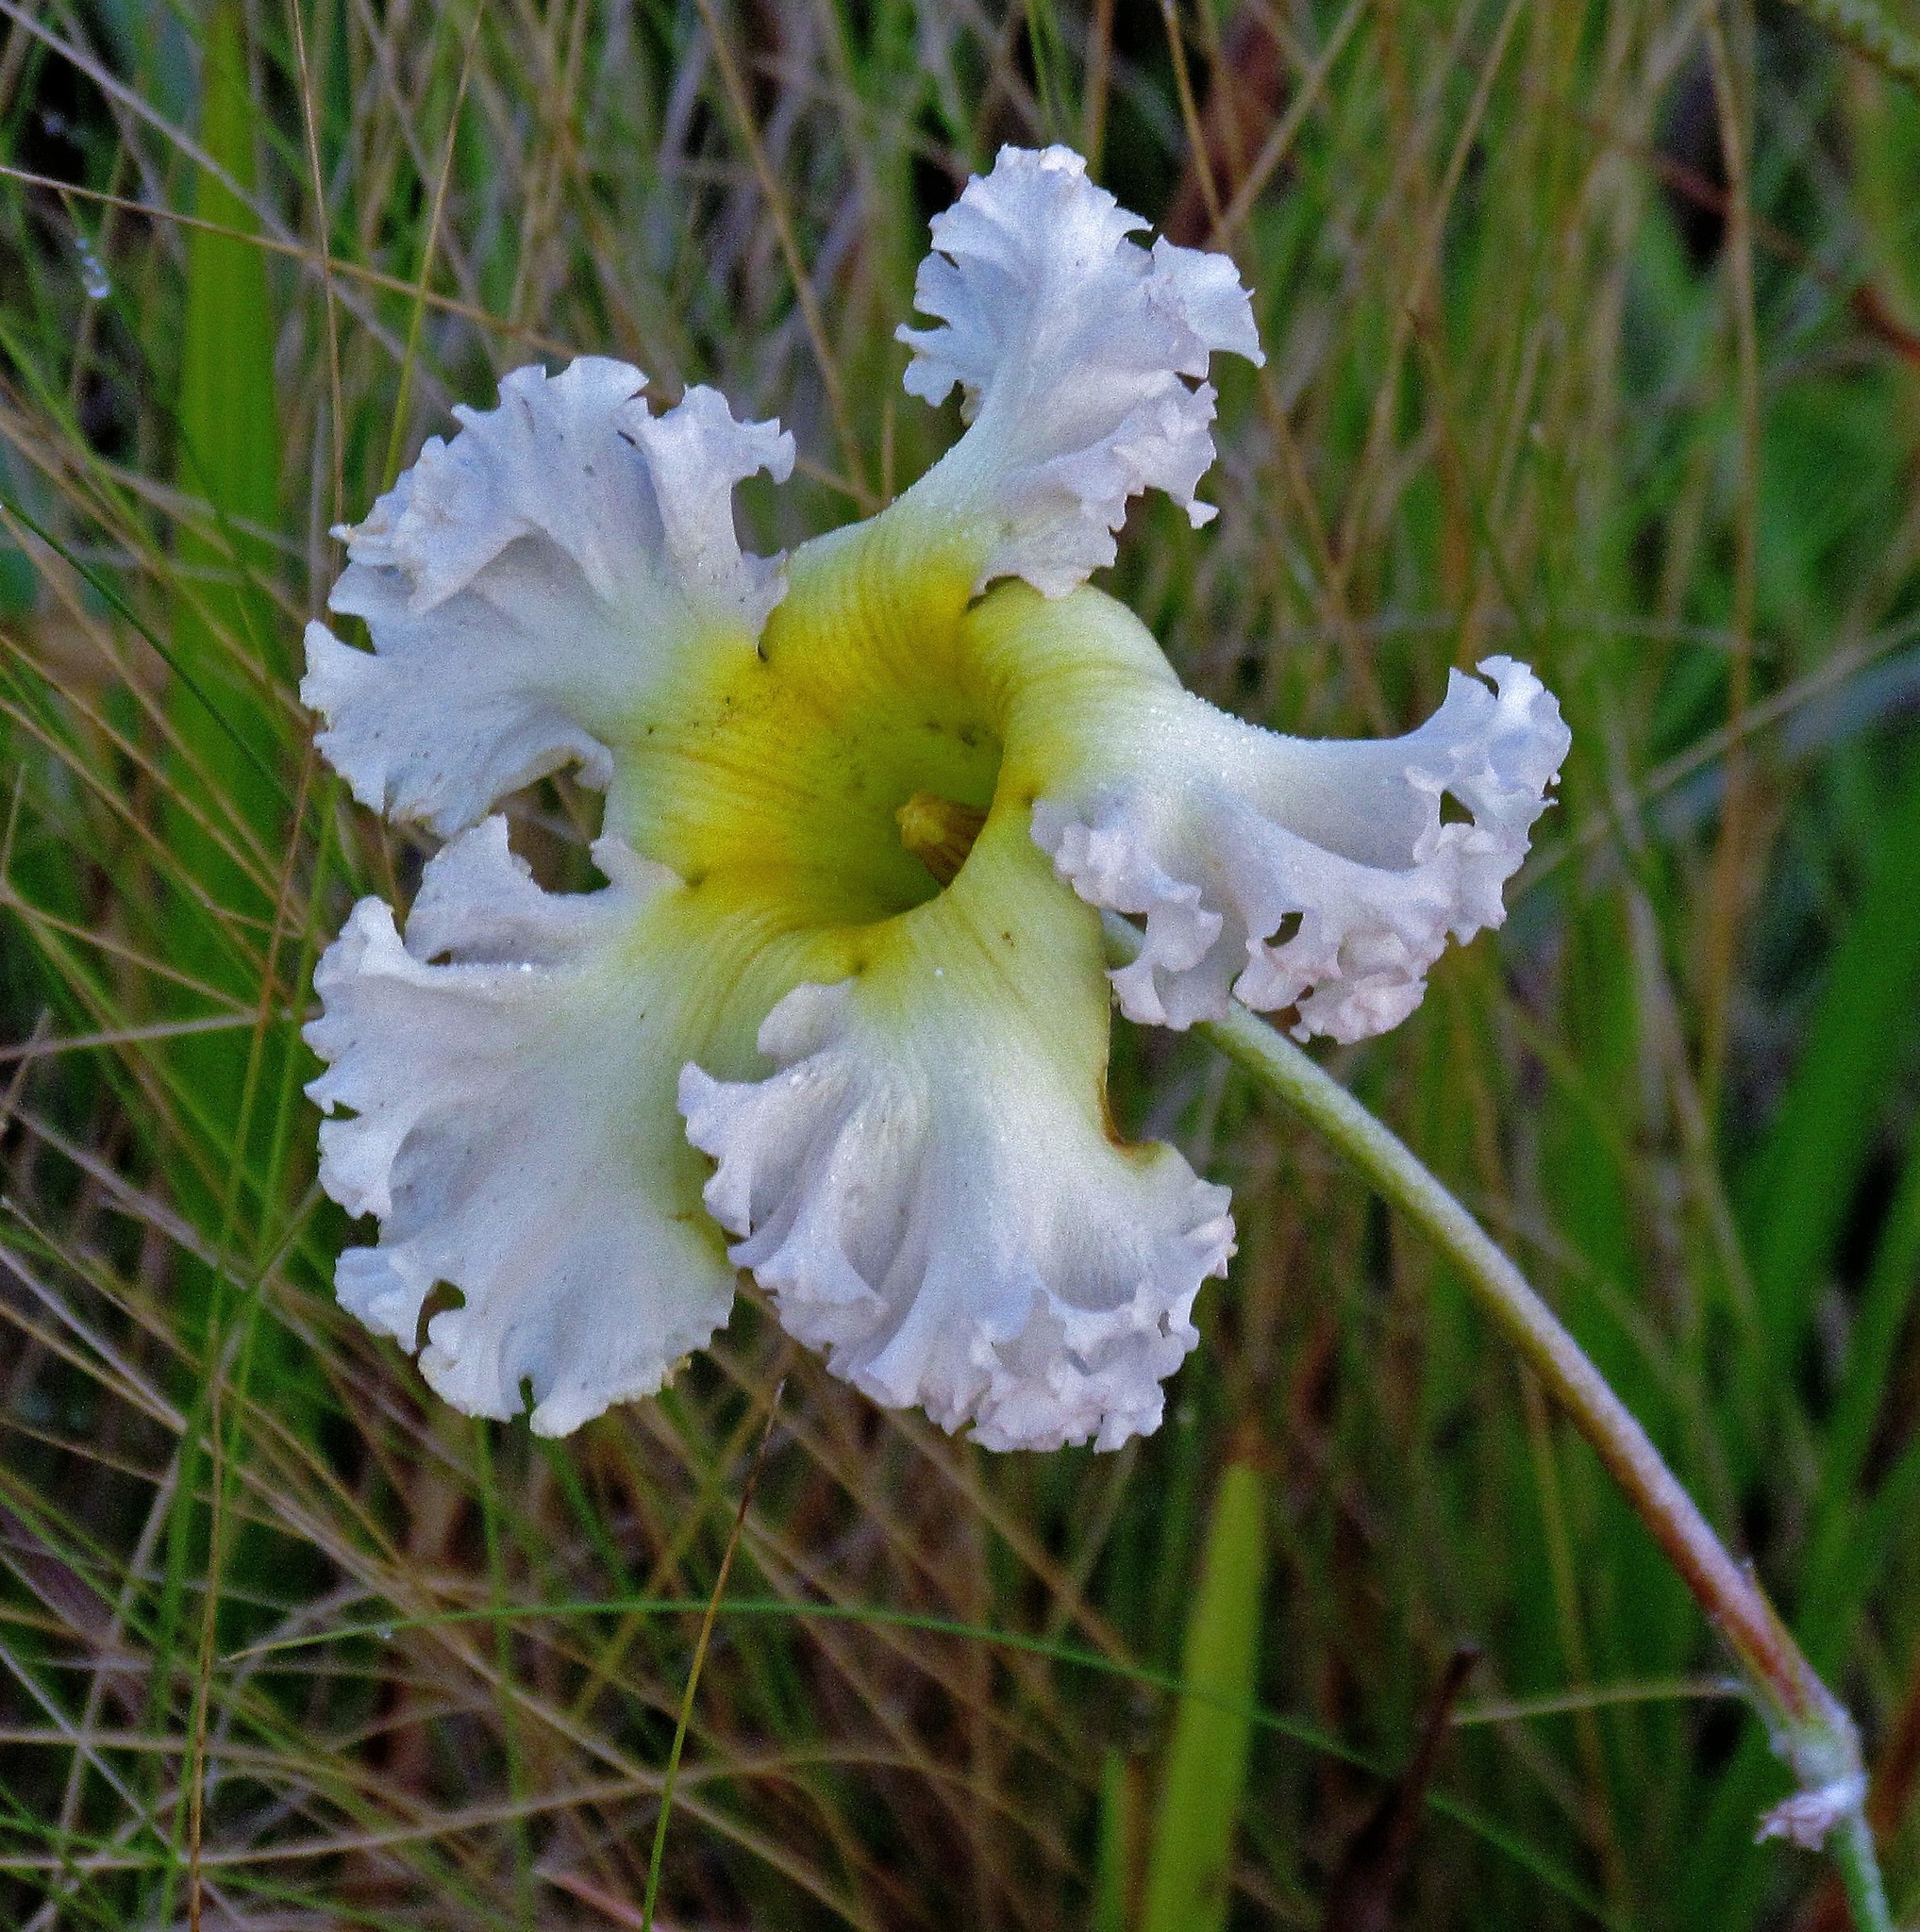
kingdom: Plantae
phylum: Tracheophyta
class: Magnoliopsida
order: Gentianales
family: Apocynaceae
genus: Mandevilla
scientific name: Mandevilla petraea
